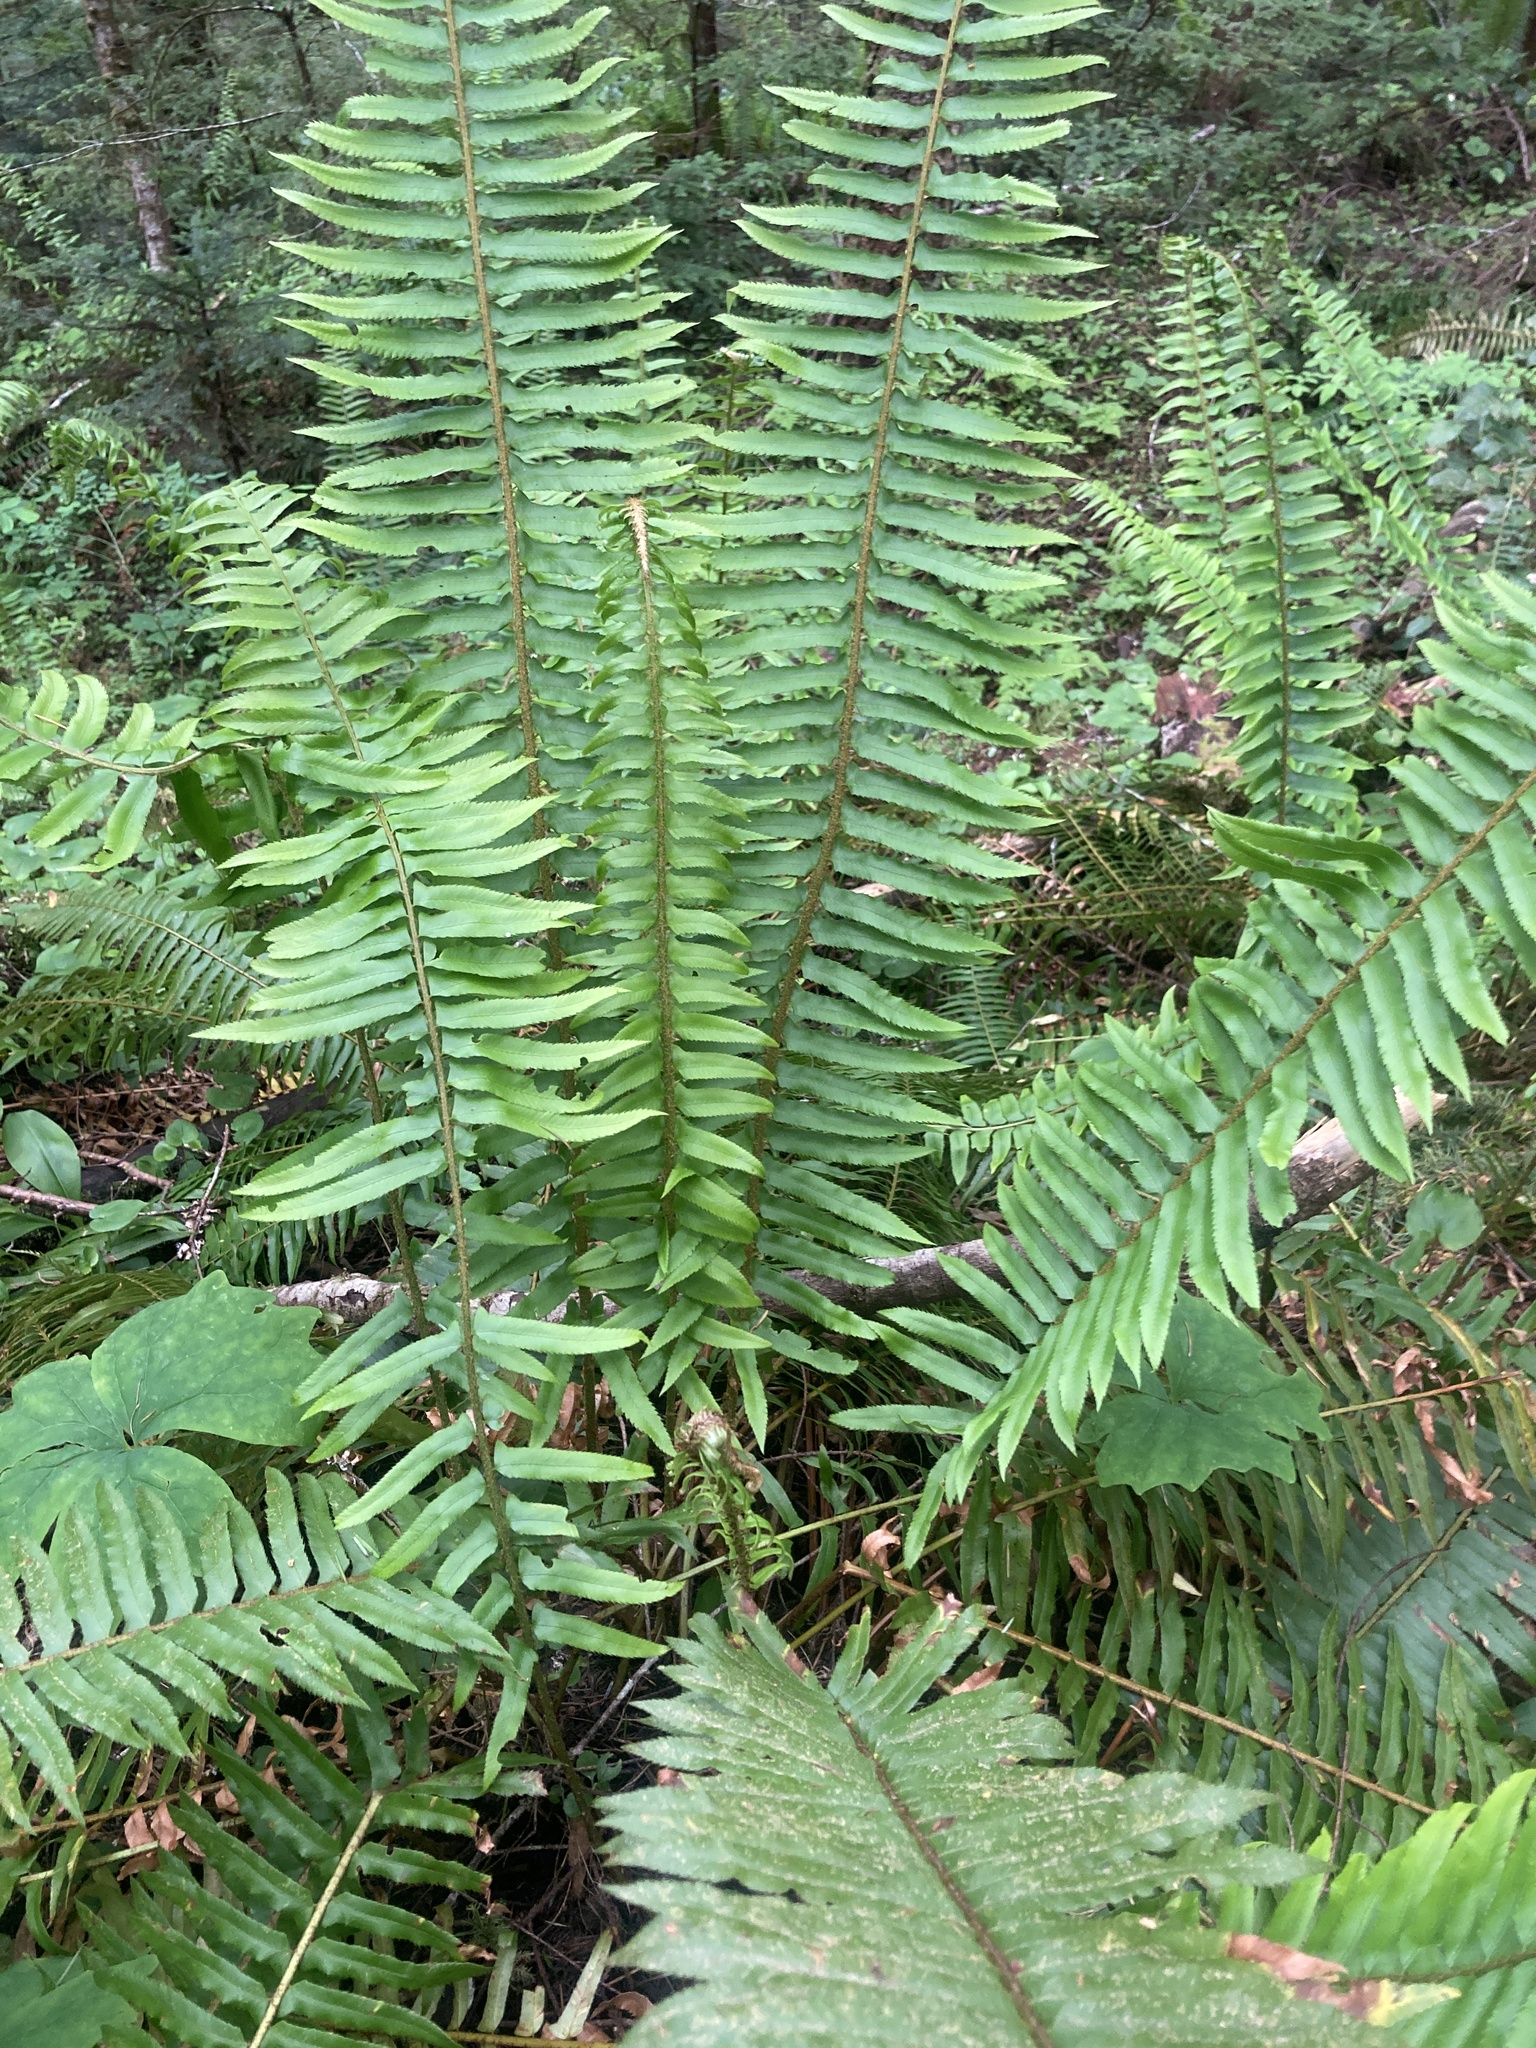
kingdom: Plantae
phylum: Tracheophyta
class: Polypodiopsida
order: Polypodiales
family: Dryopteridaceae
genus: Polystichum
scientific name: Polystichum munitum
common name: Western sword-fern
